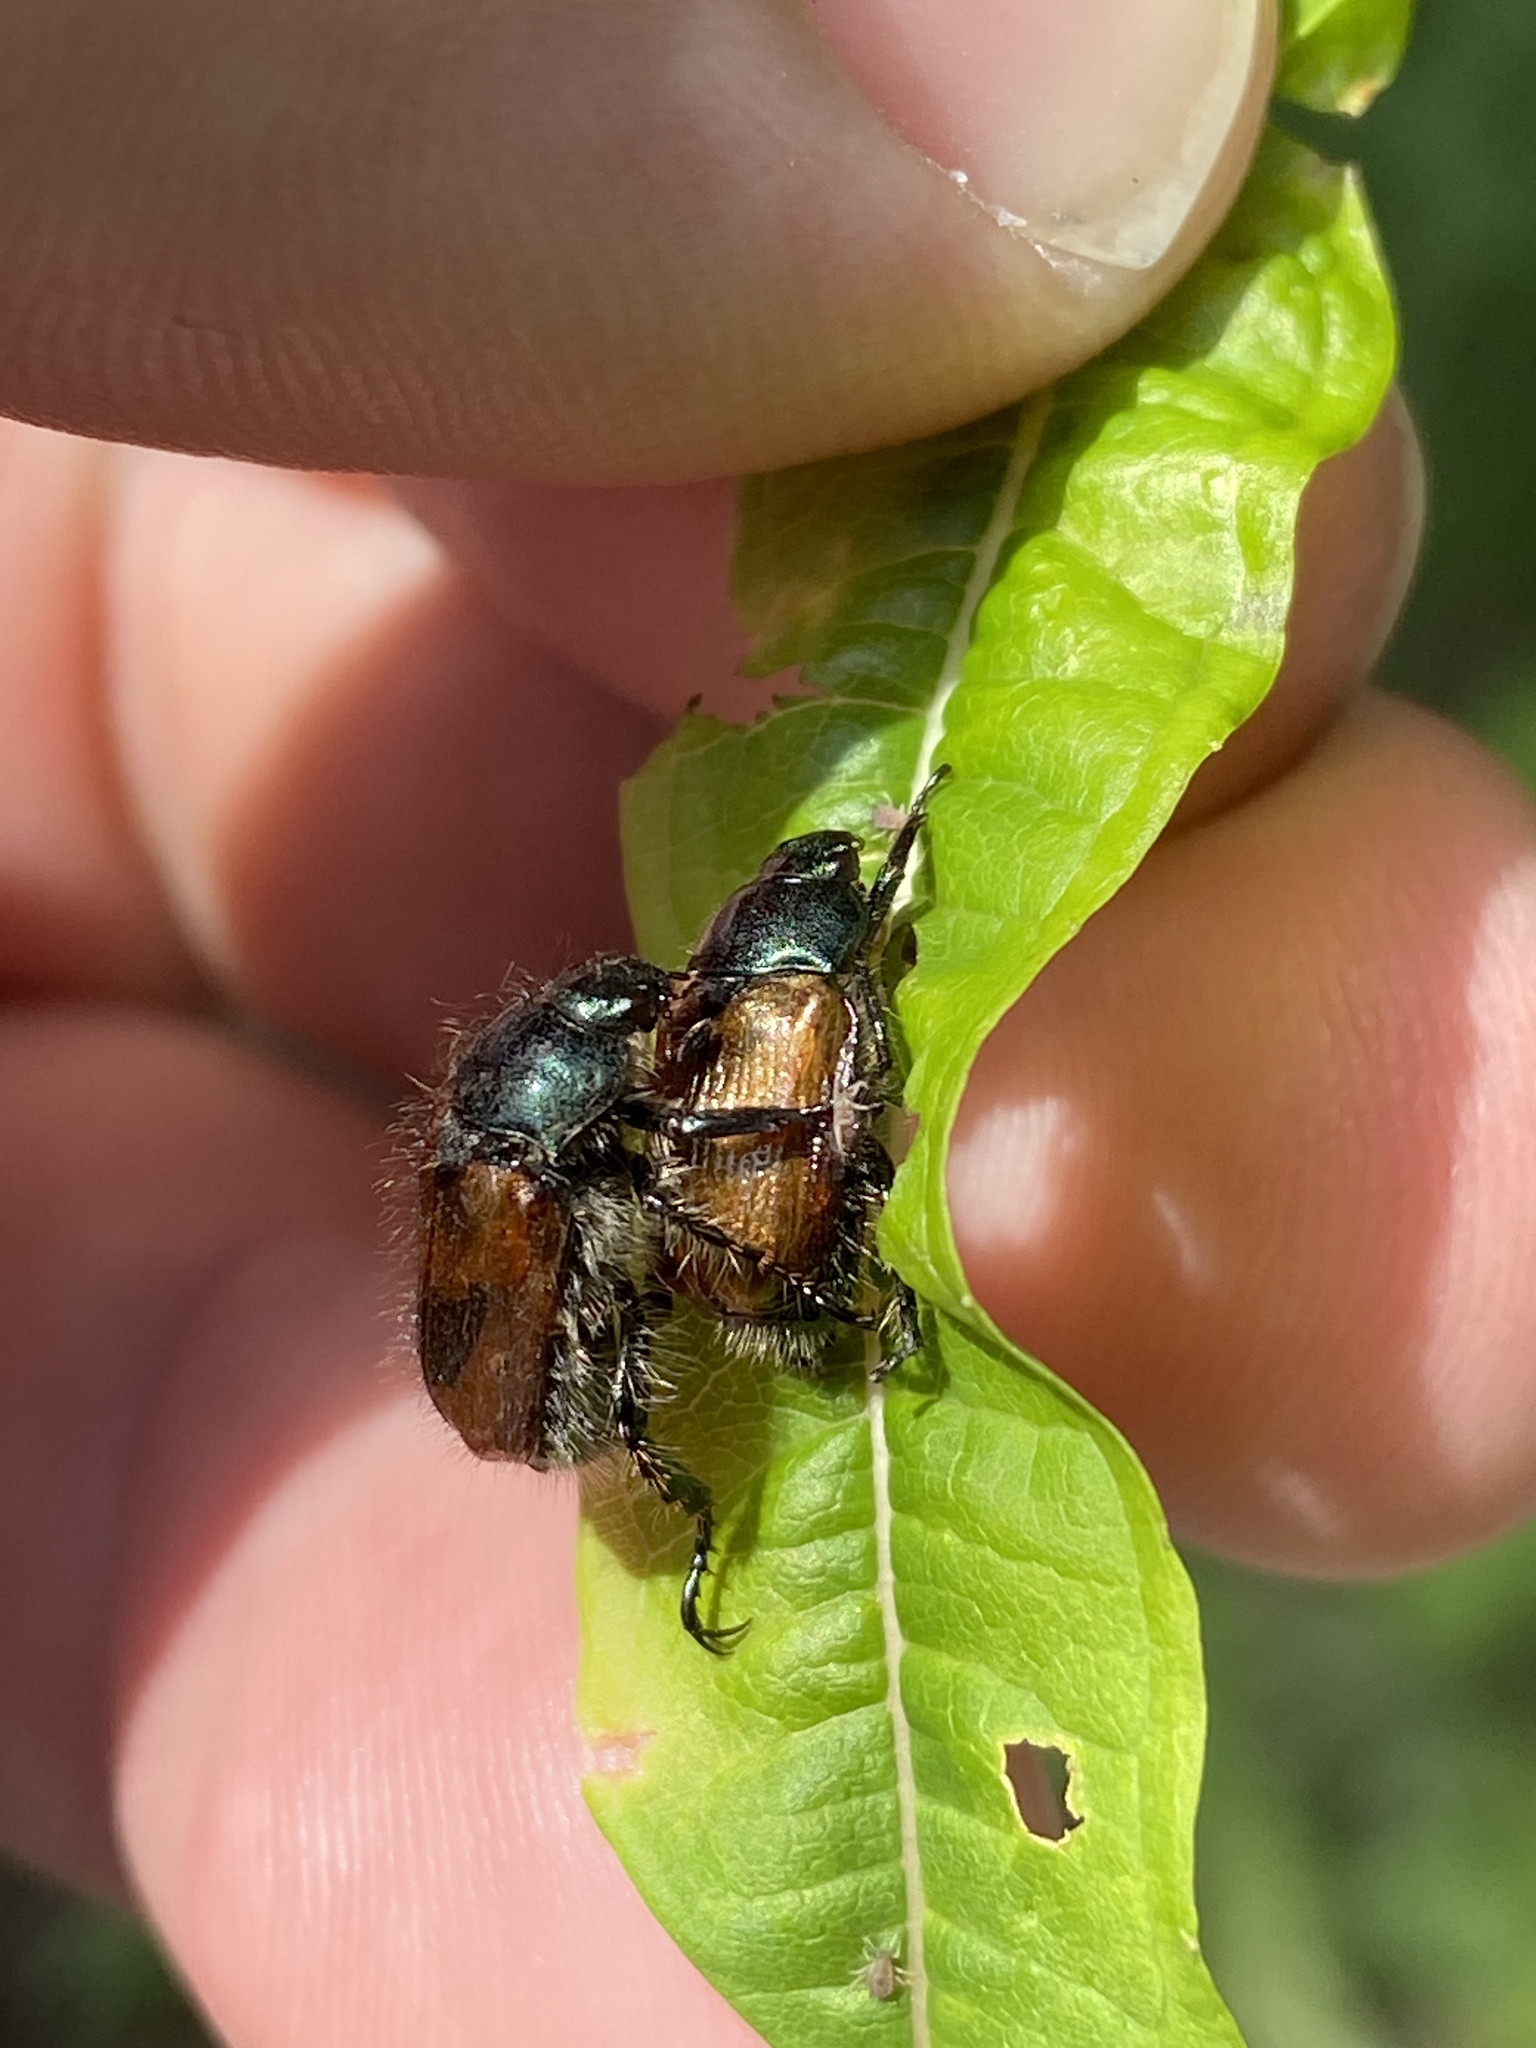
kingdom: Animalia
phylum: Arthropoda
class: Insecta
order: Coleoptera
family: Scarabaeidae
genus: Phyllopertha
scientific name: Phyllopertha horticola
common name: Garden chafer
